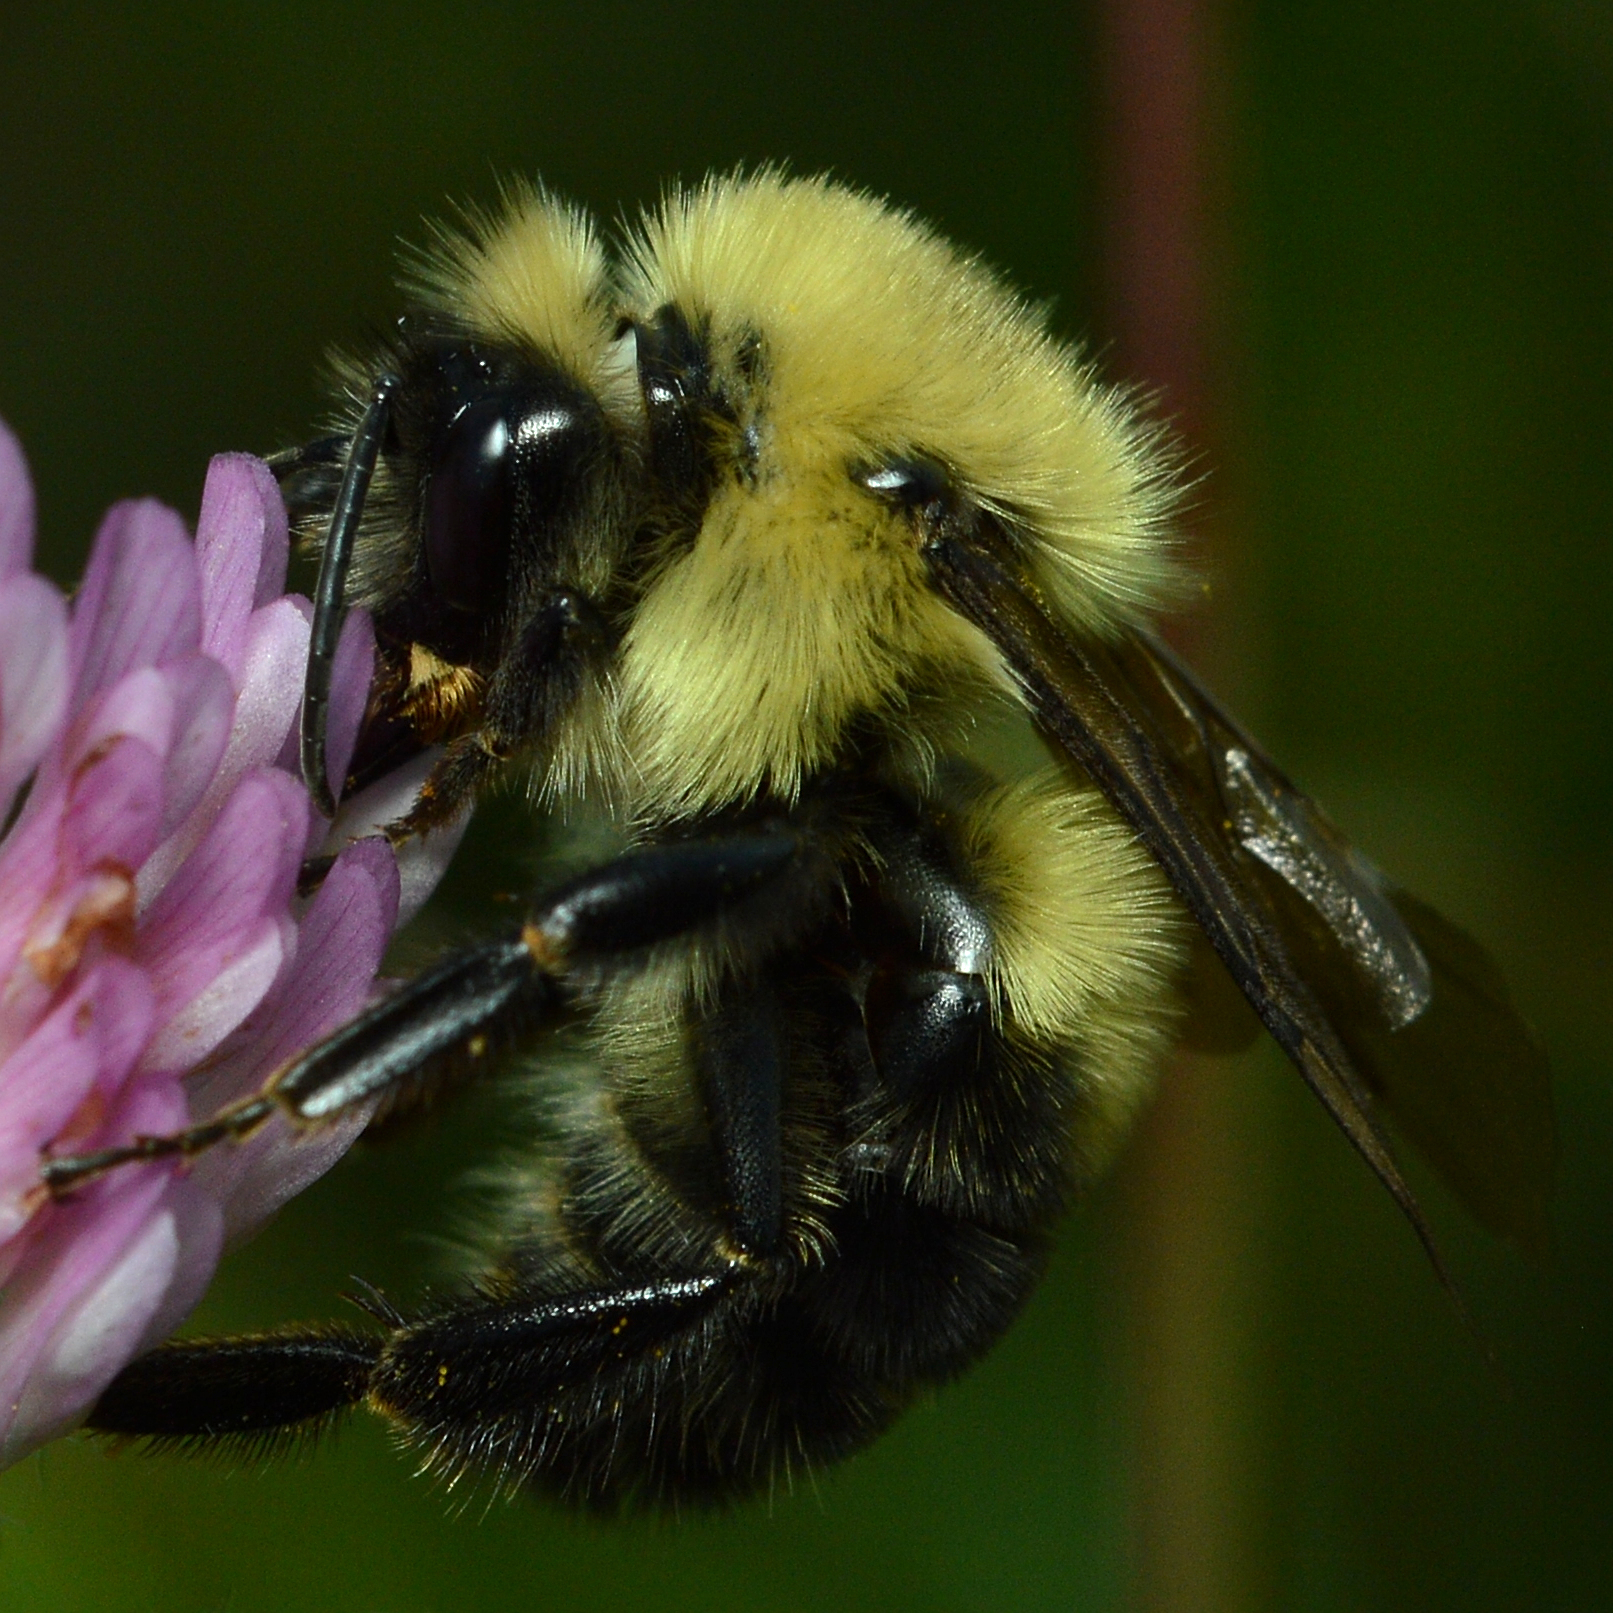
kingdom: Animalia
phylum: Arthropoda
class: Insecta
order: Hymenoptera
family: Apidae
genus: Bombus
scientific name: Bombus bimaculatus
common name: Two-spotted bumble bee
